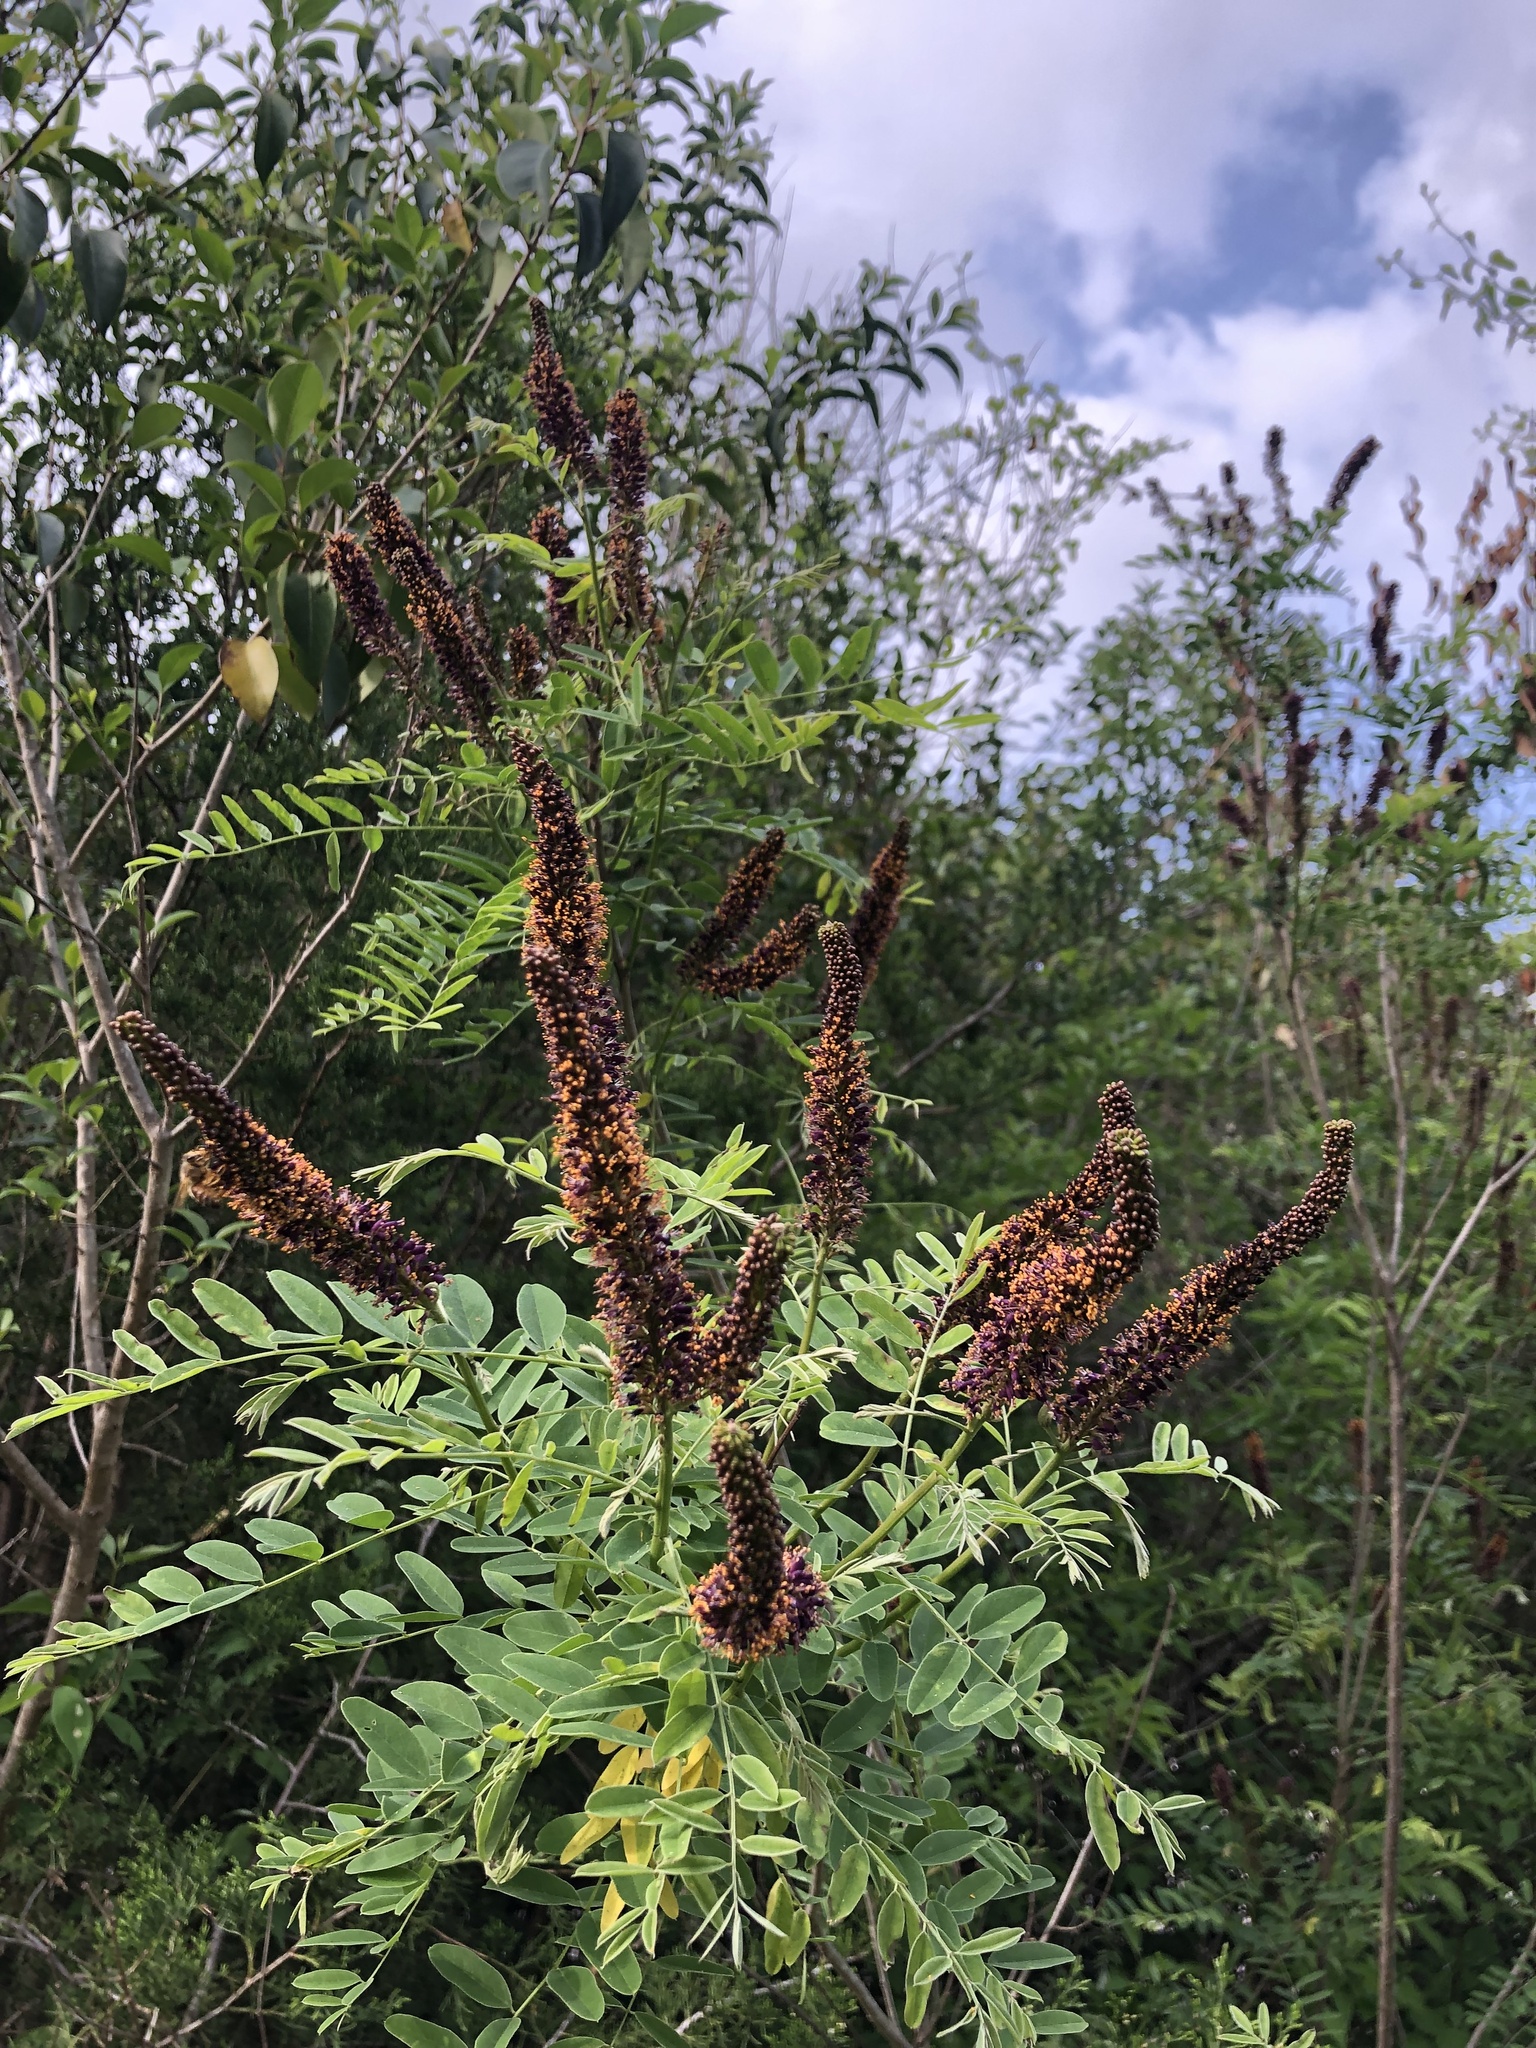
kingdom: Plantae
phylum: Tracheophyta
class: Magnoliopsida
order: Fabales
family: Fabaceae
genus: Amorpha
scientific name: Amorpha fruticosa
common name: False indigo
